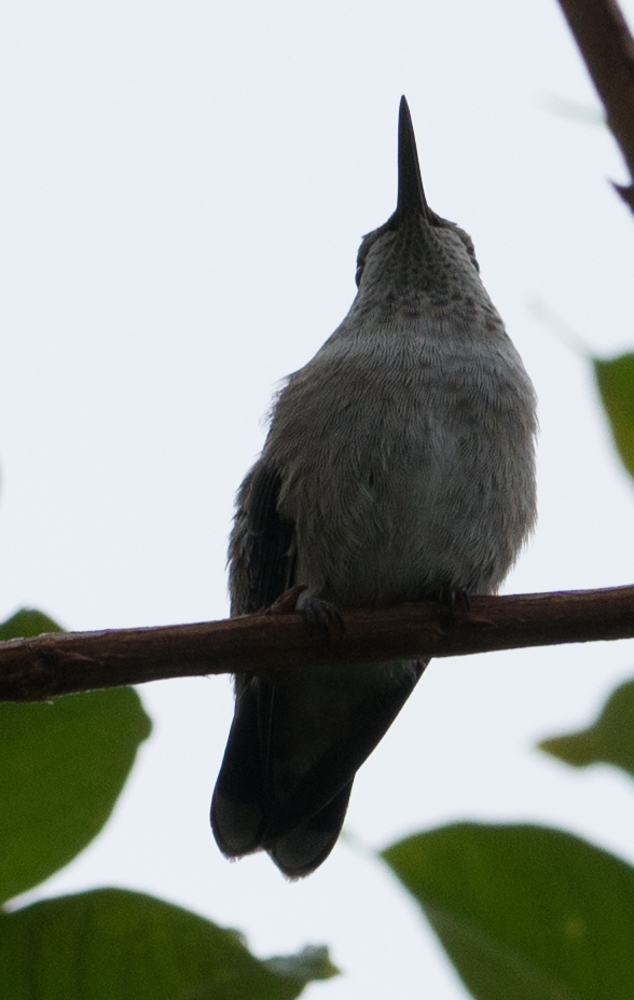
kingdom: Animalia
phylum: Chordata
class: Aves
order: Apodiformes
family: Trochilidae
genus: Calypte
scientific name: Calypte anna
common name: Anna's hummingbird
